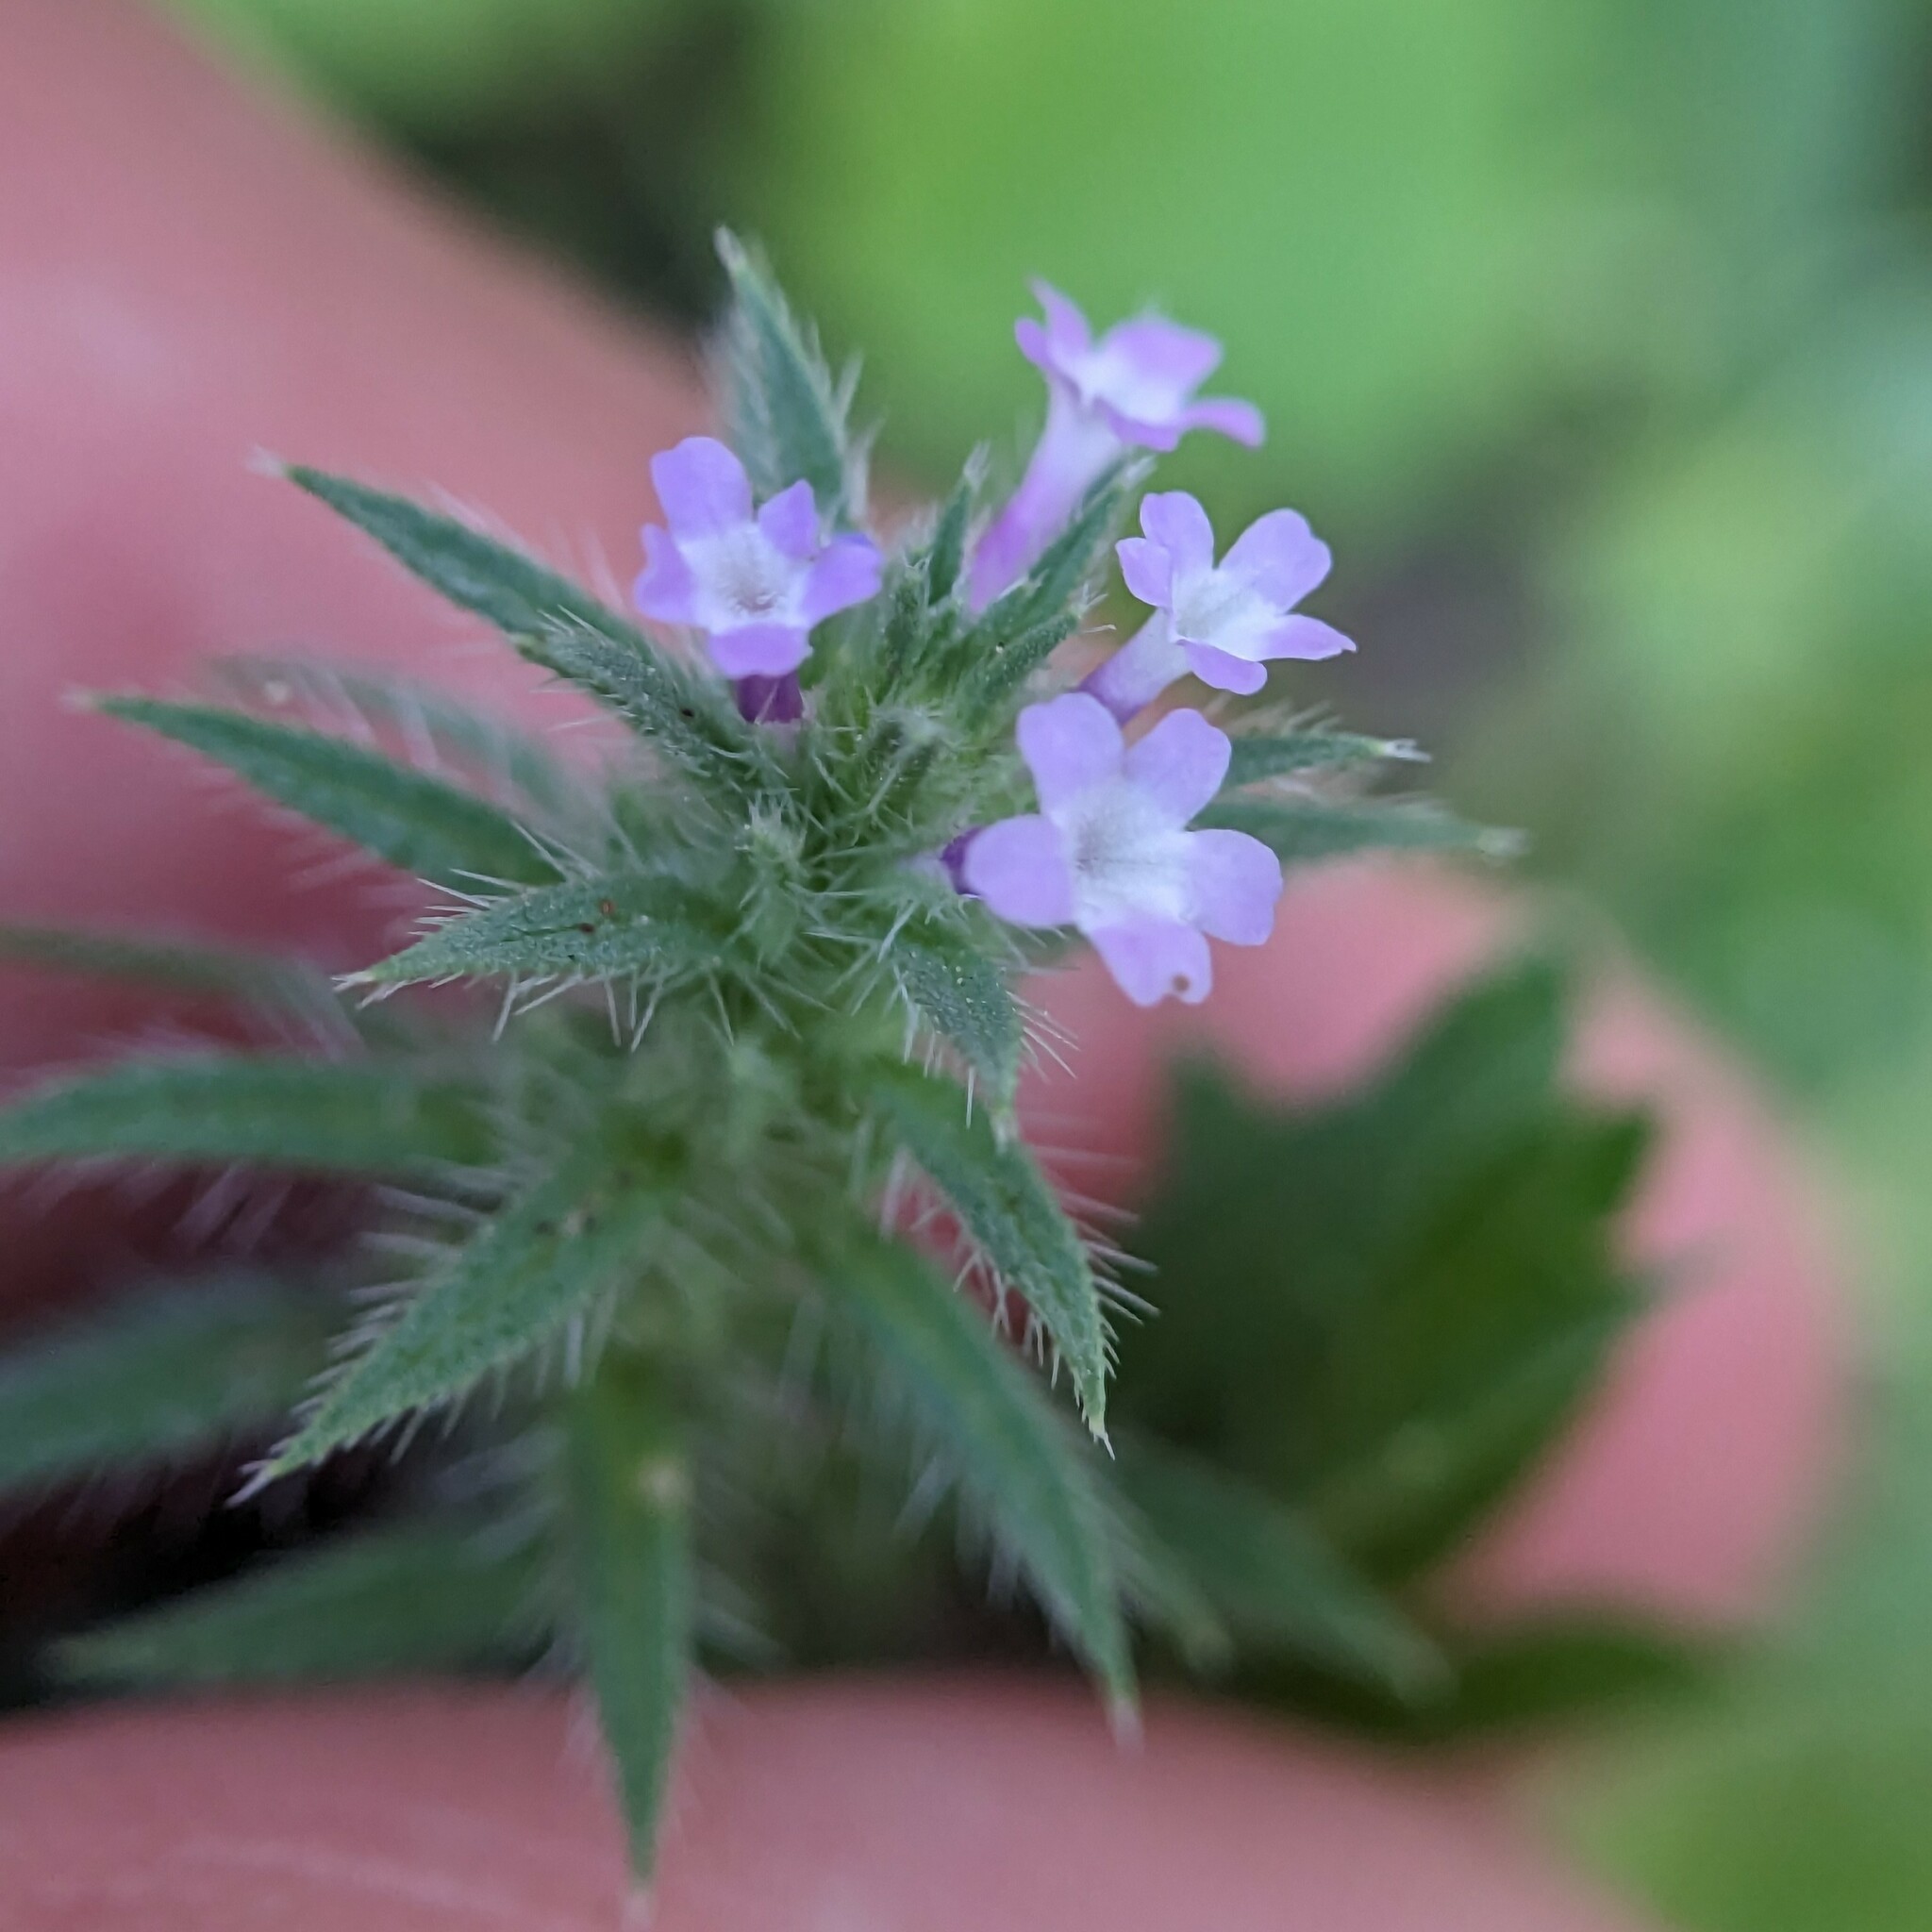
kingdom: Plantae
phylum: Tracheophyta
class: Magnoliopsida
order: Lamiales
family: Verbenaceae
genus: Verbena
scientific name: Verbena bracteata
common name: Bracted vervain
